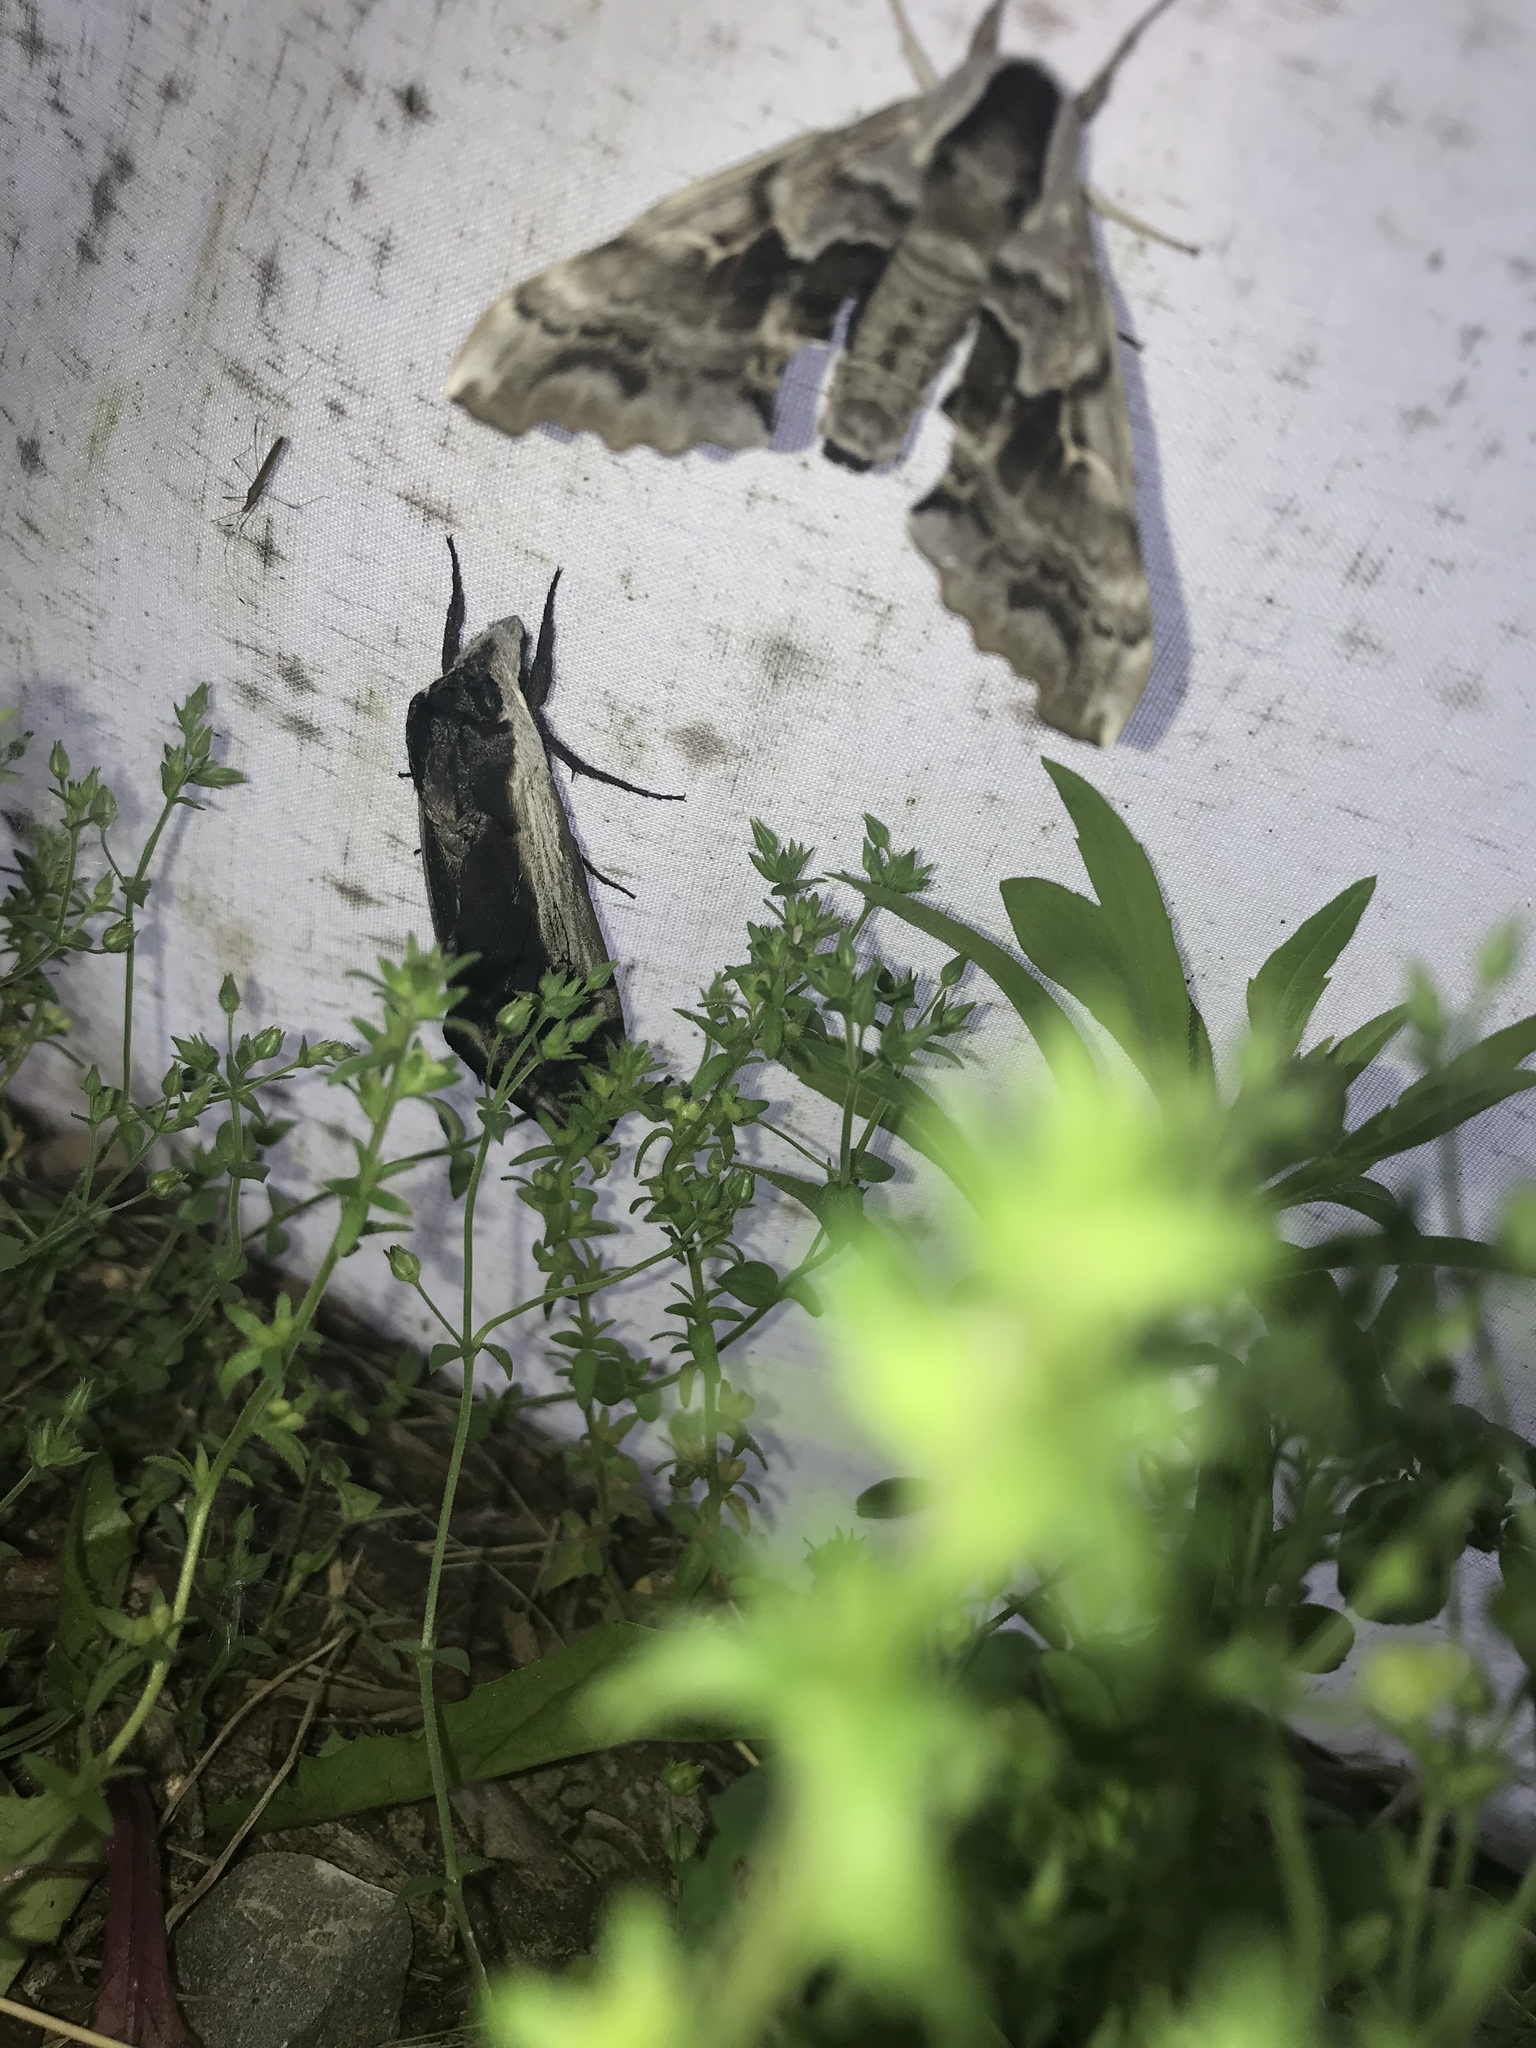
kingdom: Animalia
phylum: Arthropoda
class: Insecta
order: Lepidoptera
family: Sphingidae
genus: Sphinx
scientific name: Sphinx drupiferarum
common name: Wild cherry sphinx
